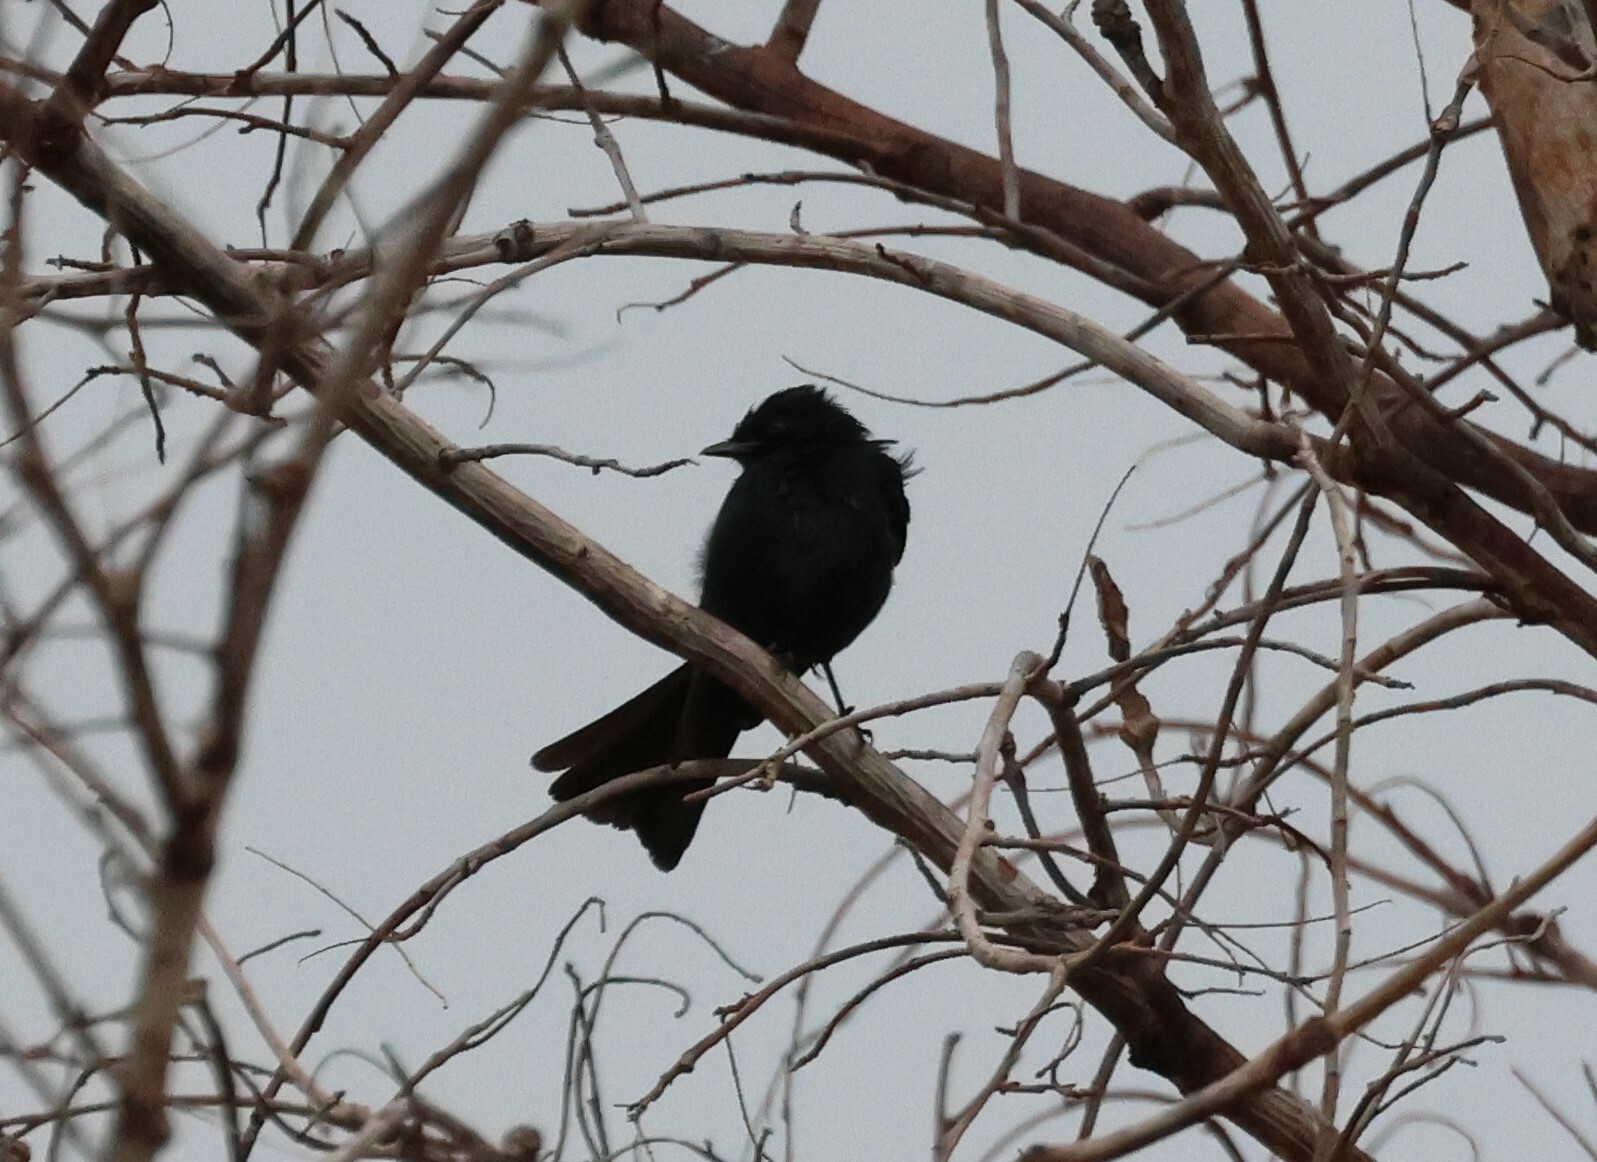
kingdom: Animalia
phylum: Chordata
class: Aves
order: Passeriformes
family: Muscicapidae
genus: Melaenornis
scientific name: Melaenornis pammelaina
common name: Southern black flycatcher
